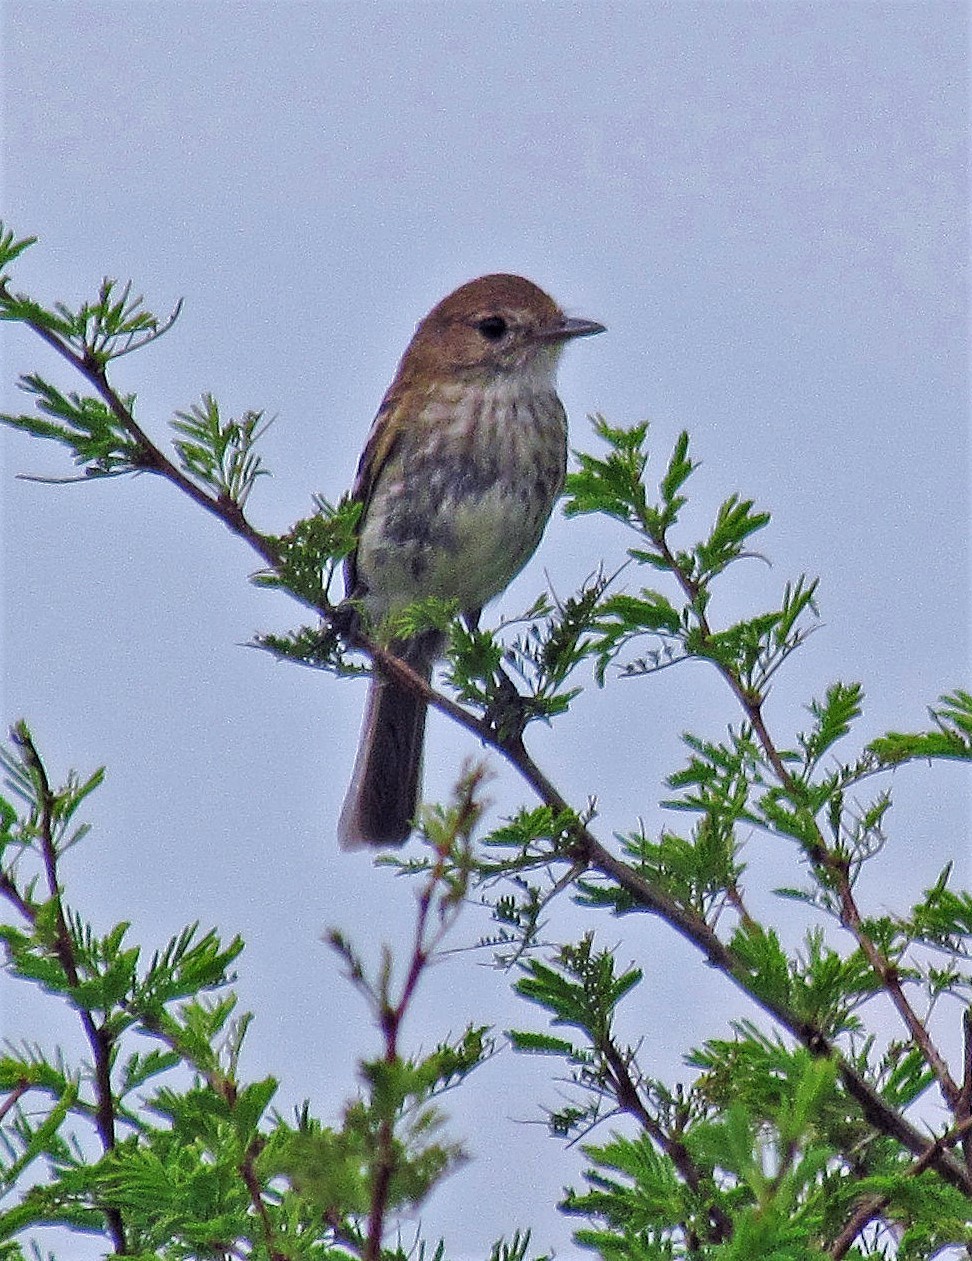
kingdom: Animalia
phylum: Chordata
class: Aves
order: Passeriformes
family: Tyrannidae
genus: Myiophobus
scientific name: Myiophobus fasciatus
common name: Bran-colored flycatcher
